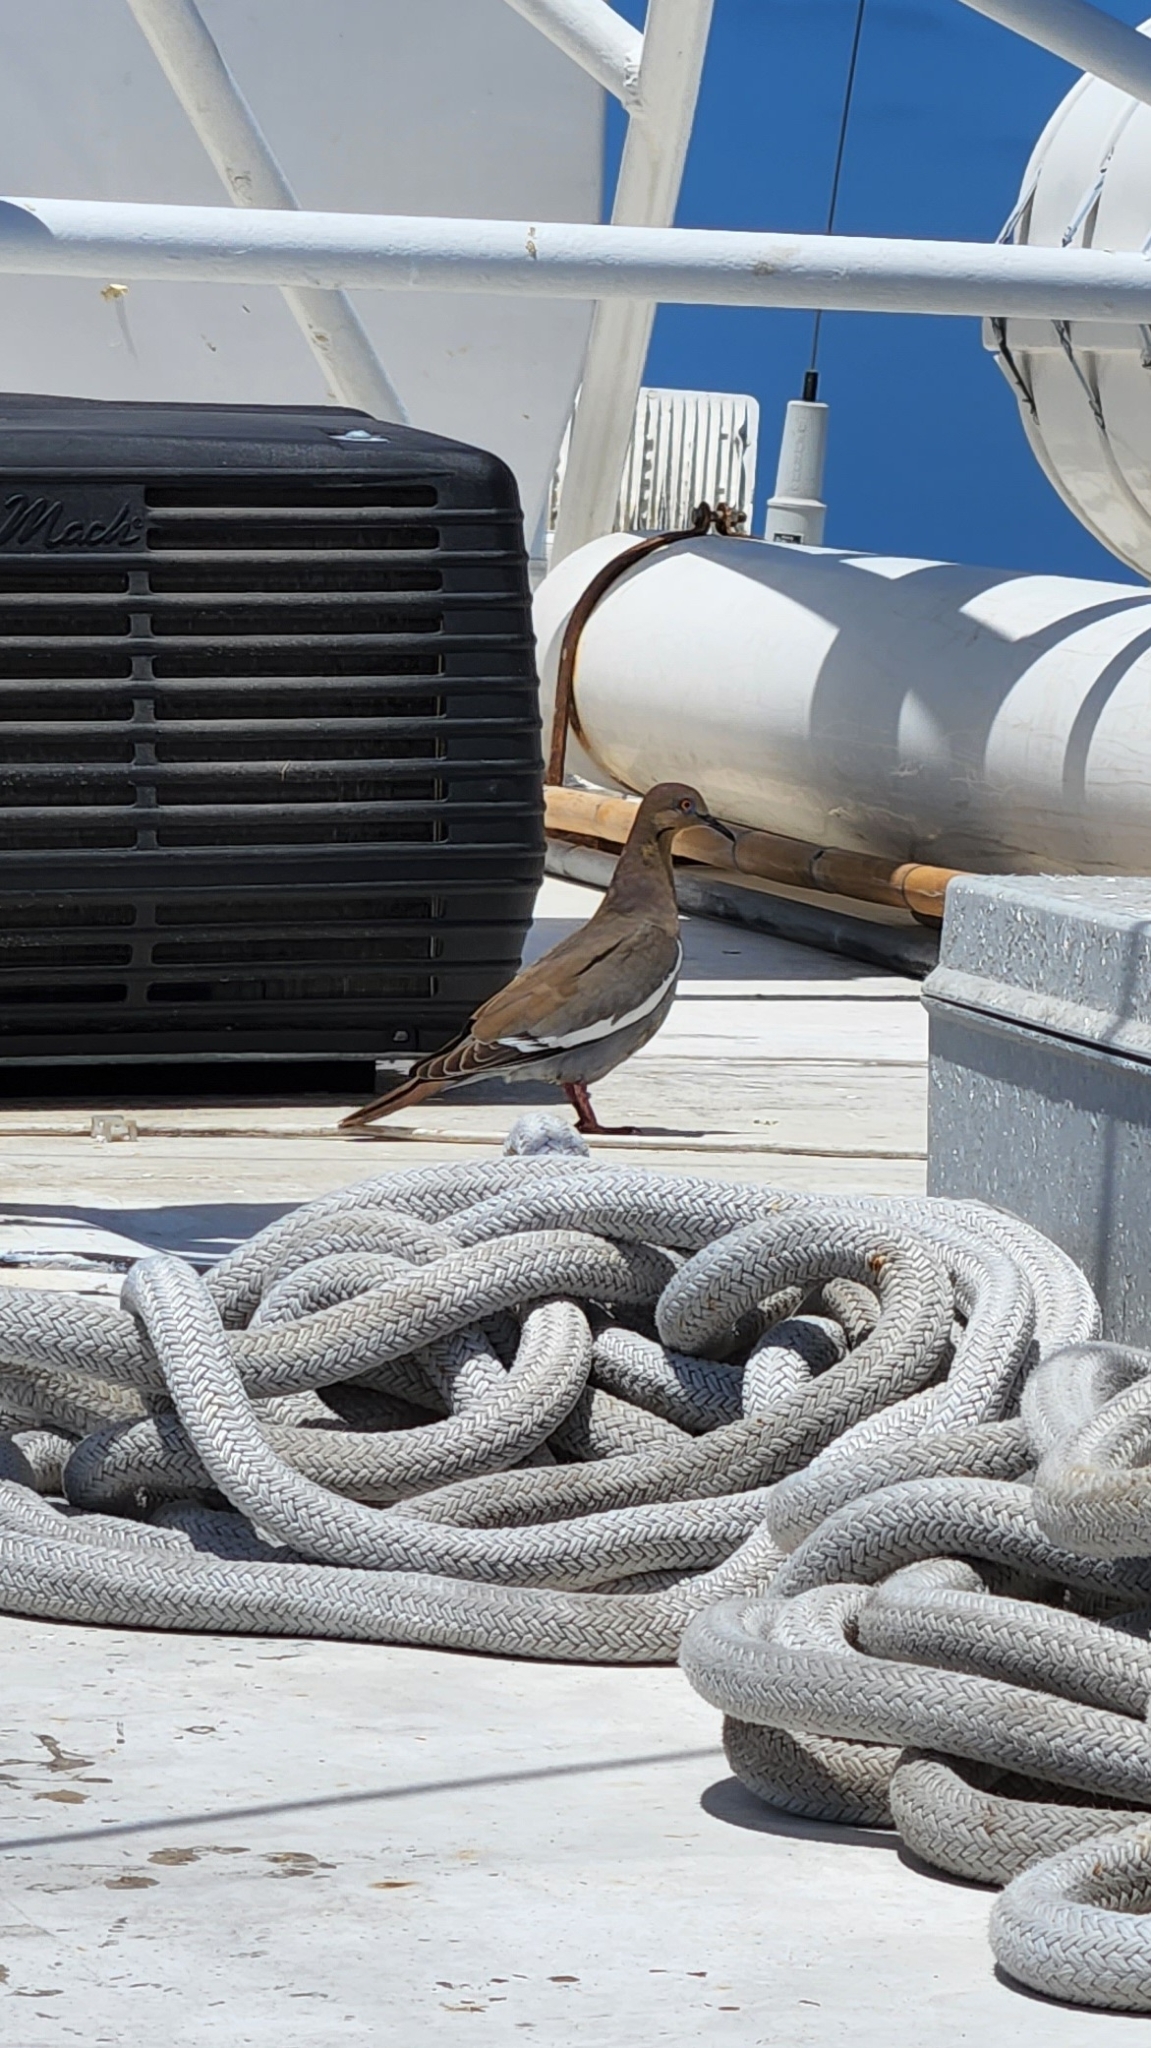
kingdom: Animalia
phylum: Chordata
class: Aves
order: Columbiformes
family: Columbidae
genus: Zenaida
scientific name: Zenaida asiatica
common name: White-winged dove
